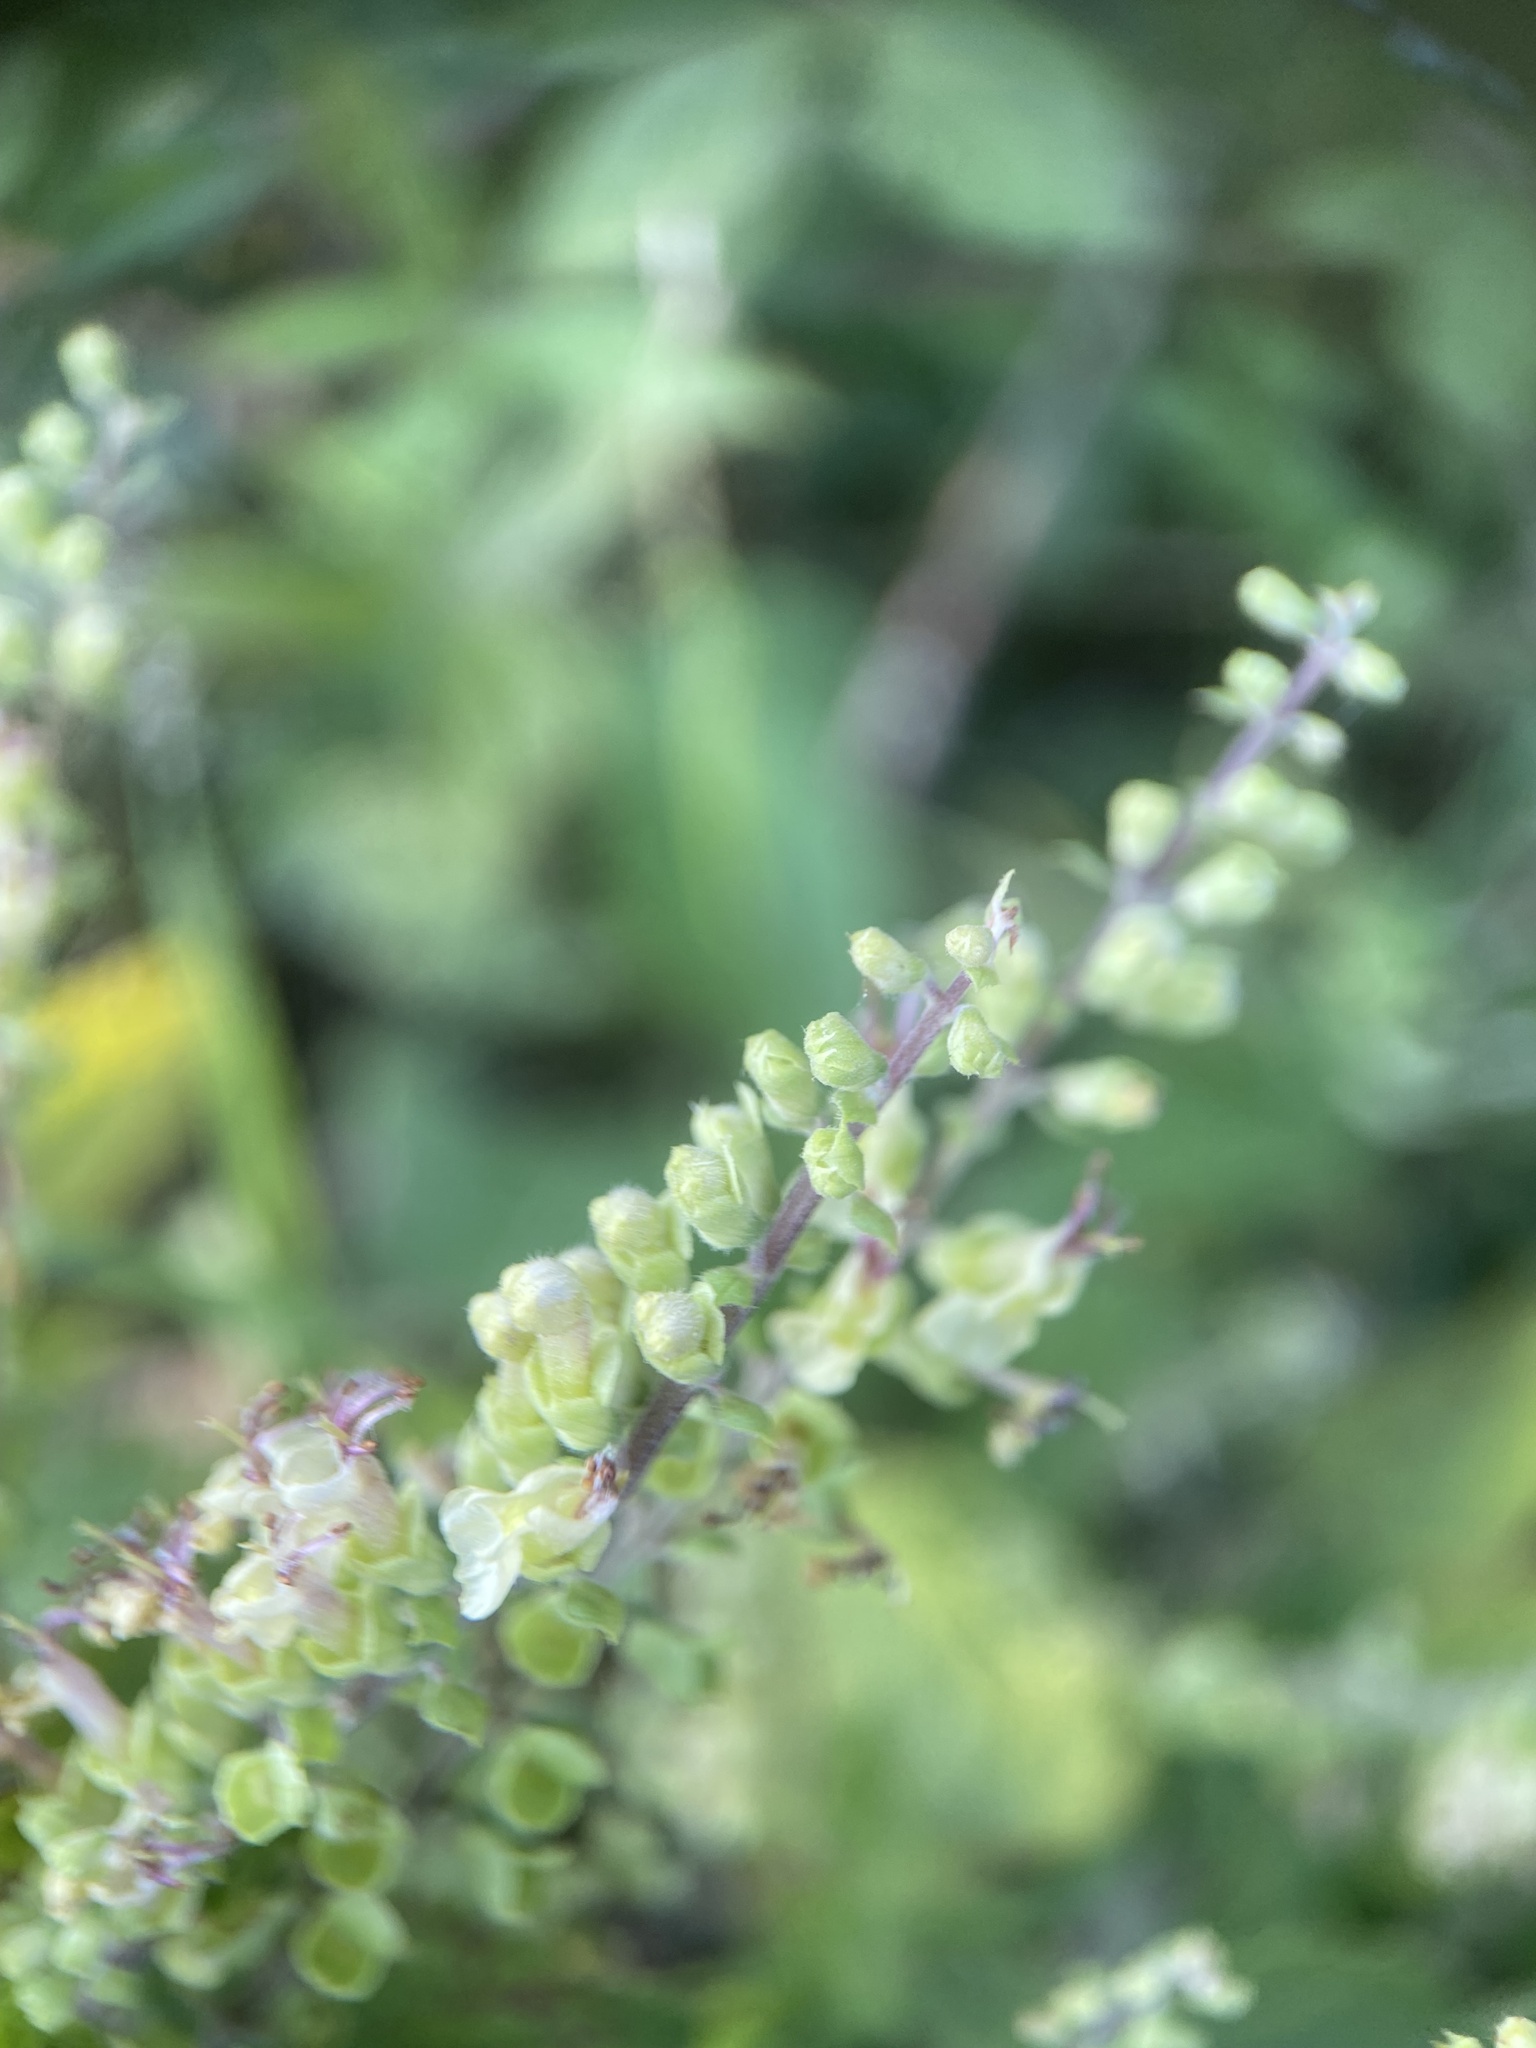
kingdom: Plantae
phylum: Tracheophyta
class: Magnoliopsida
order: Lamiales
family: Lamiaceae
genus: Teucrium
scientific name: Teucrium scorodonia
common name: Woodland germander
